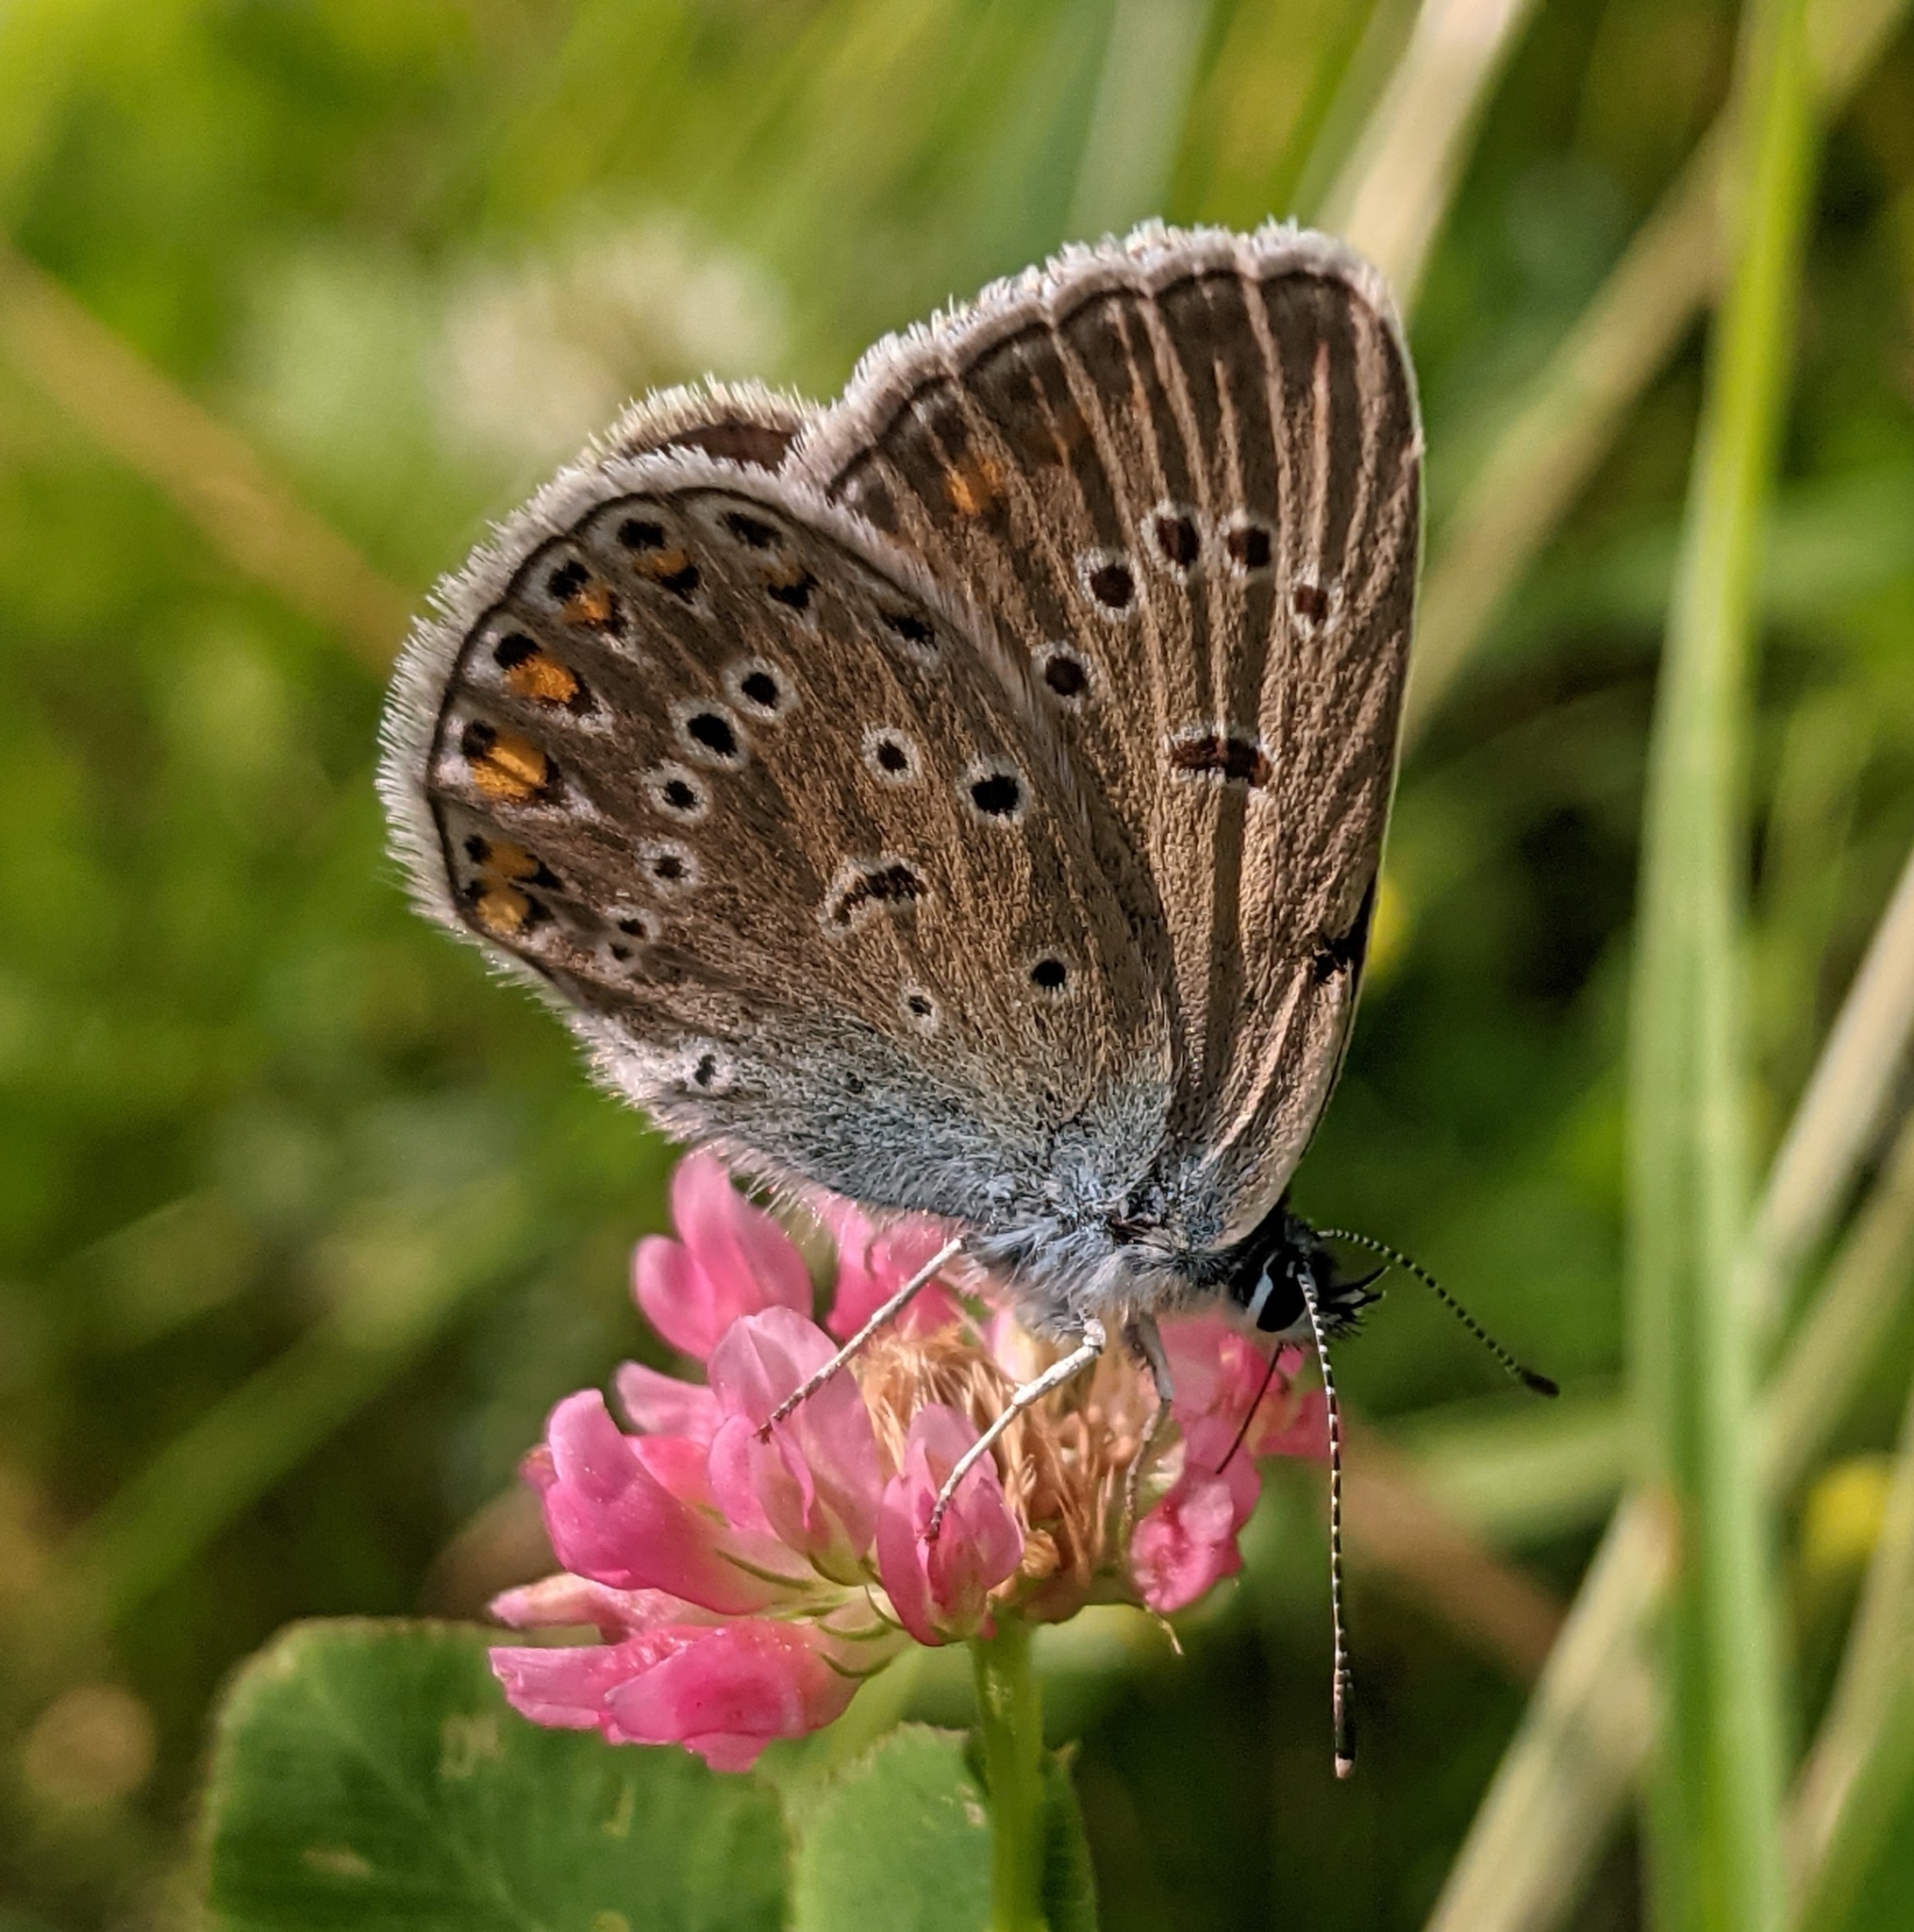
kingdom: Animalia
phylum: Arthropoda
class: Insecta
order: Lepidoptera
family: Lycaenidae
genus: Plebejus
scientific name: Plebejus amanda
